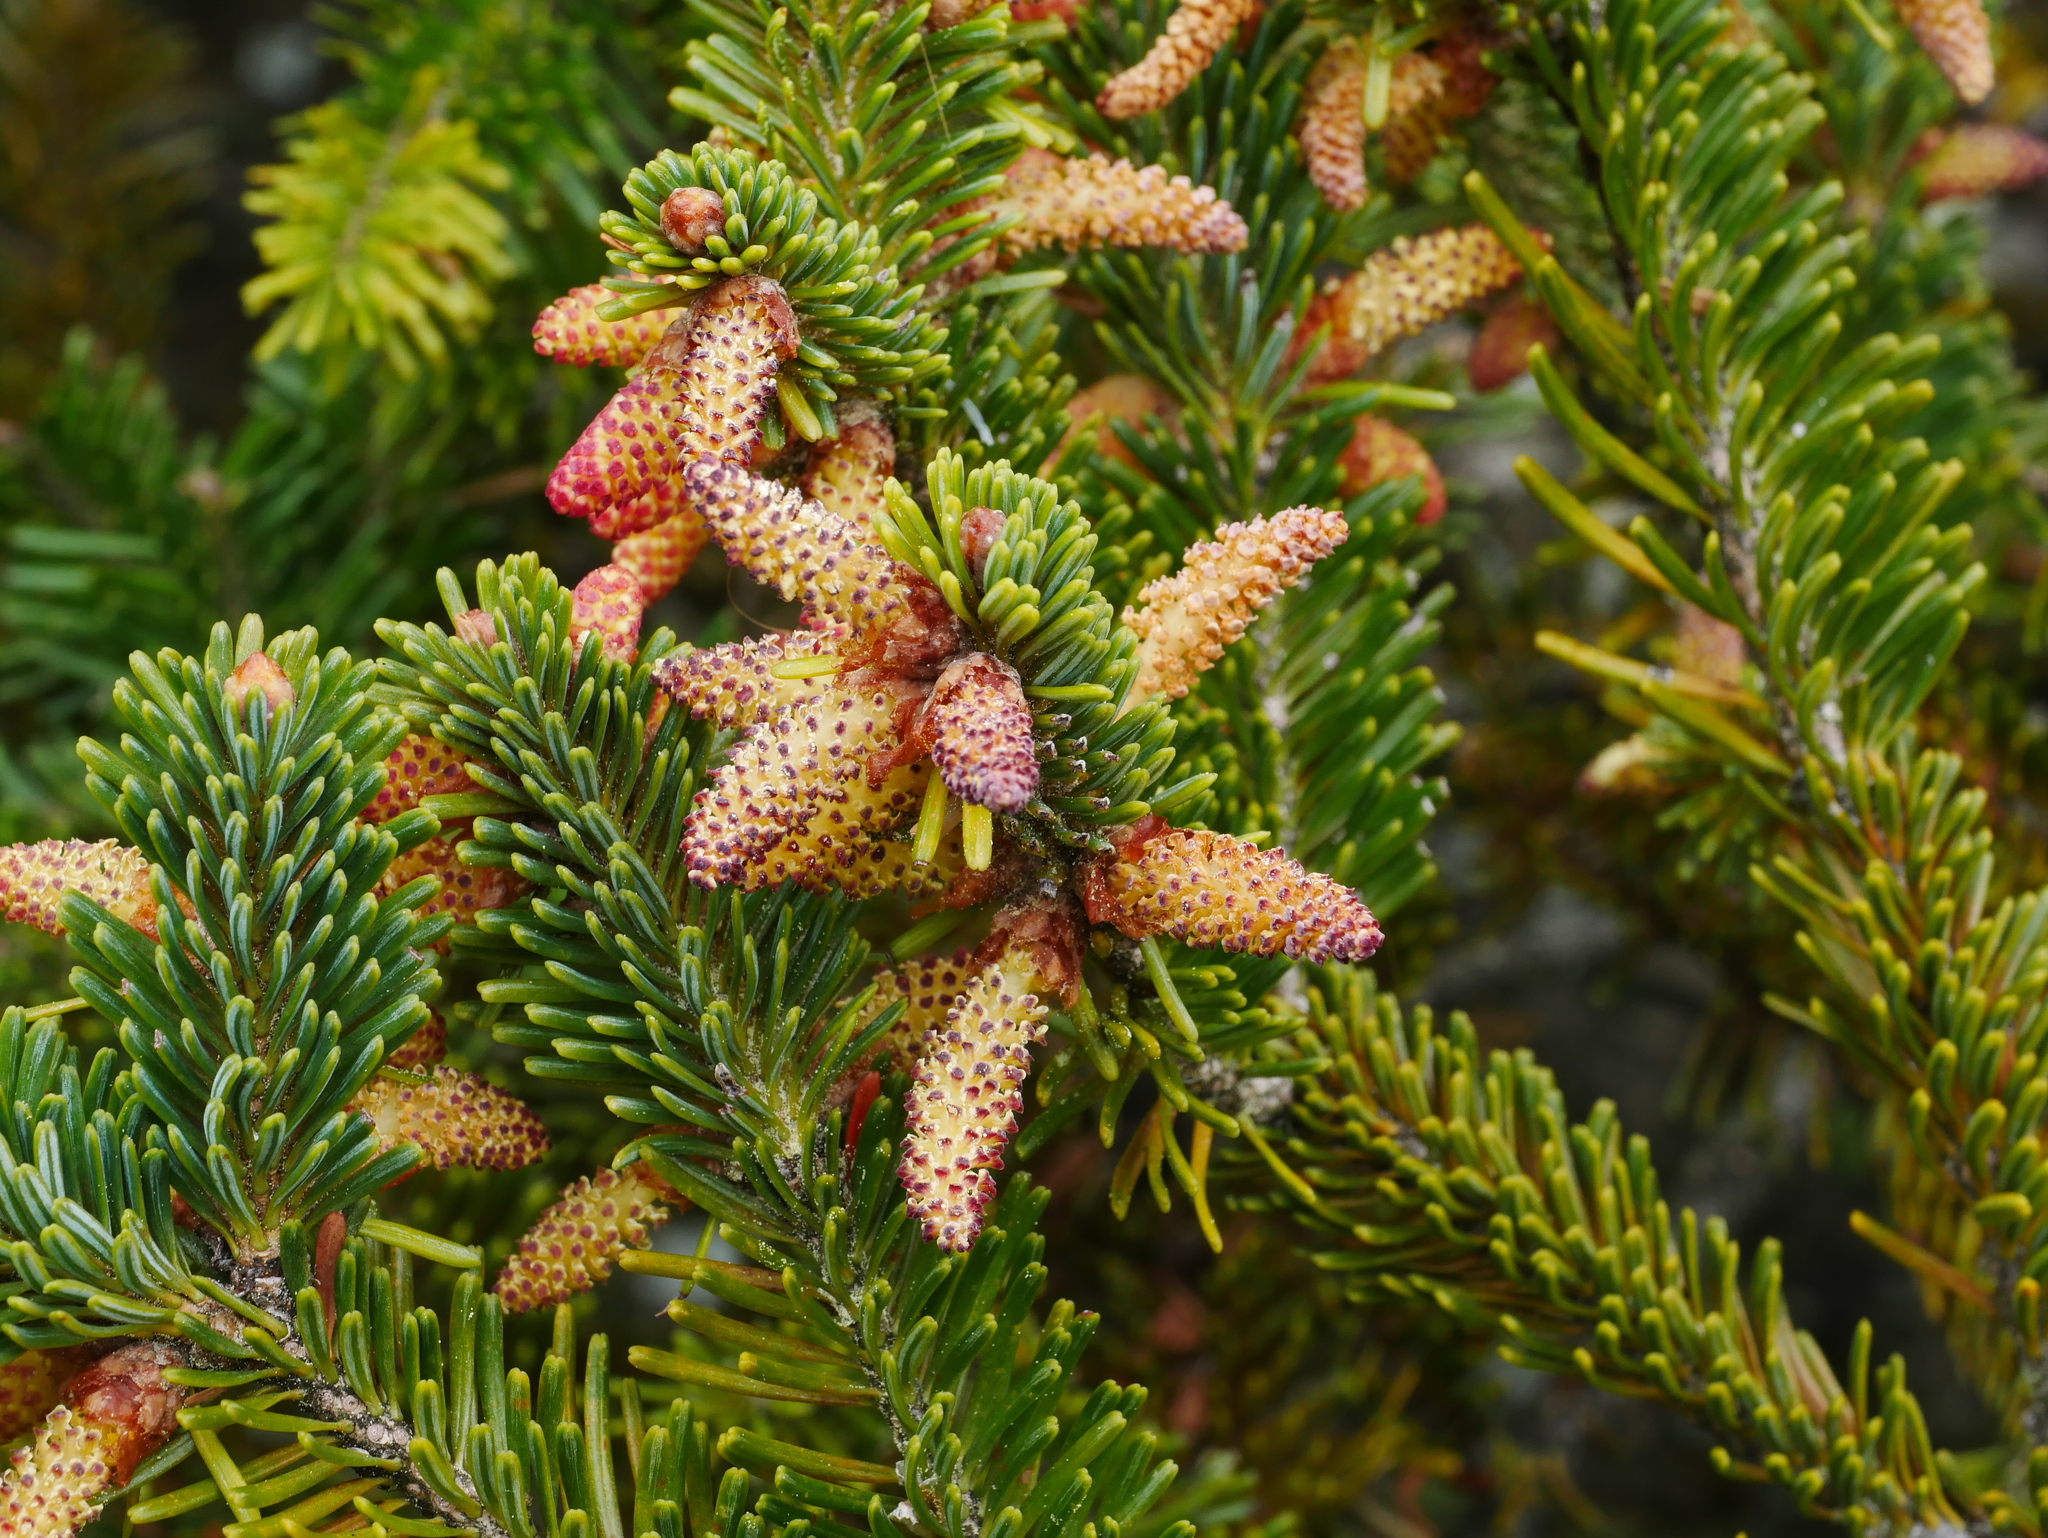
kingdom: Plantae
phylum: Tracheophyta
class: Pinopsida
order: Pinales
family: Pinaceae
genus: Abies
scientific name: Abies kawakamii
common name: Taiwan fir
